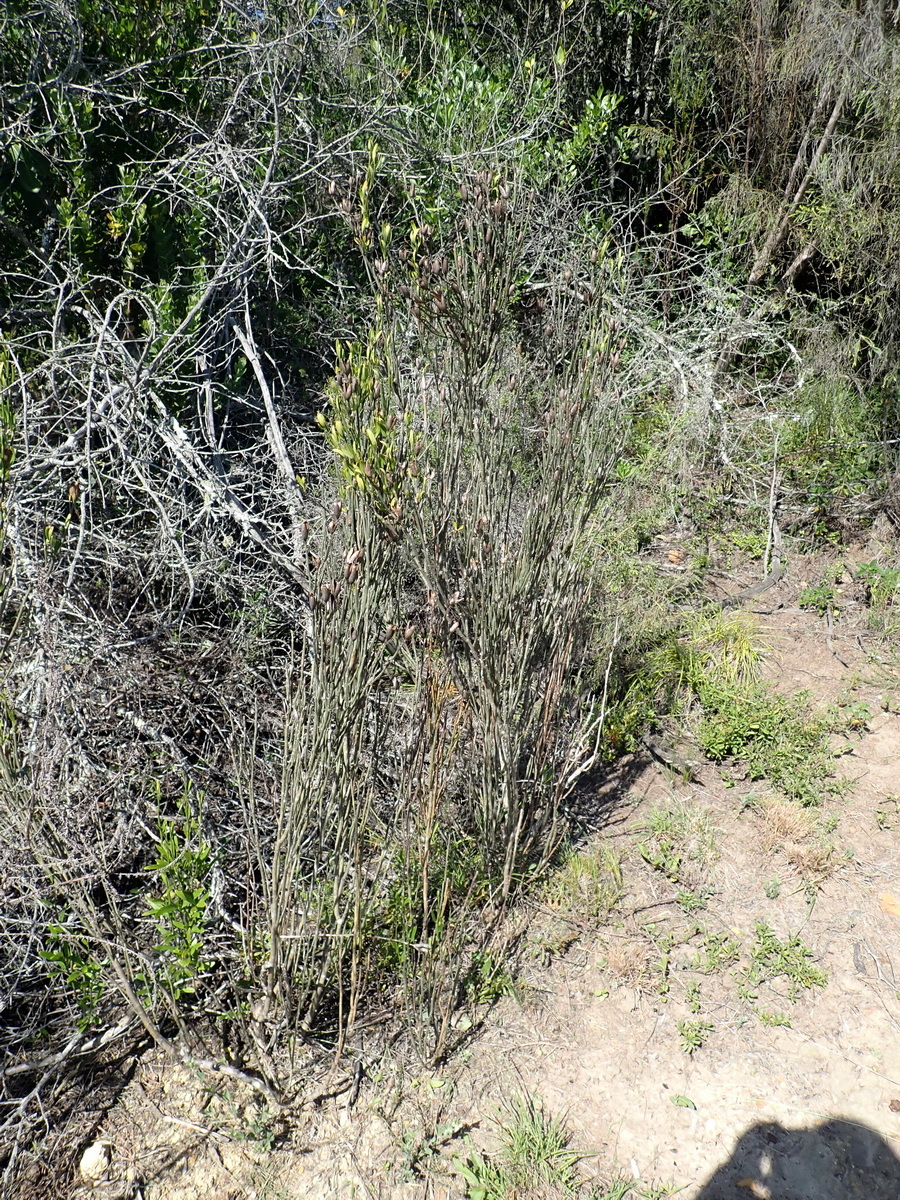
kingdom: Plantae
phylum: Tracheophyta
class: Magnoliopsida
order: Solanales
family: Montiniaceae
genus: Montinia
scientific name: Montinia caryophyllacea
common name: Wild clove-bush
